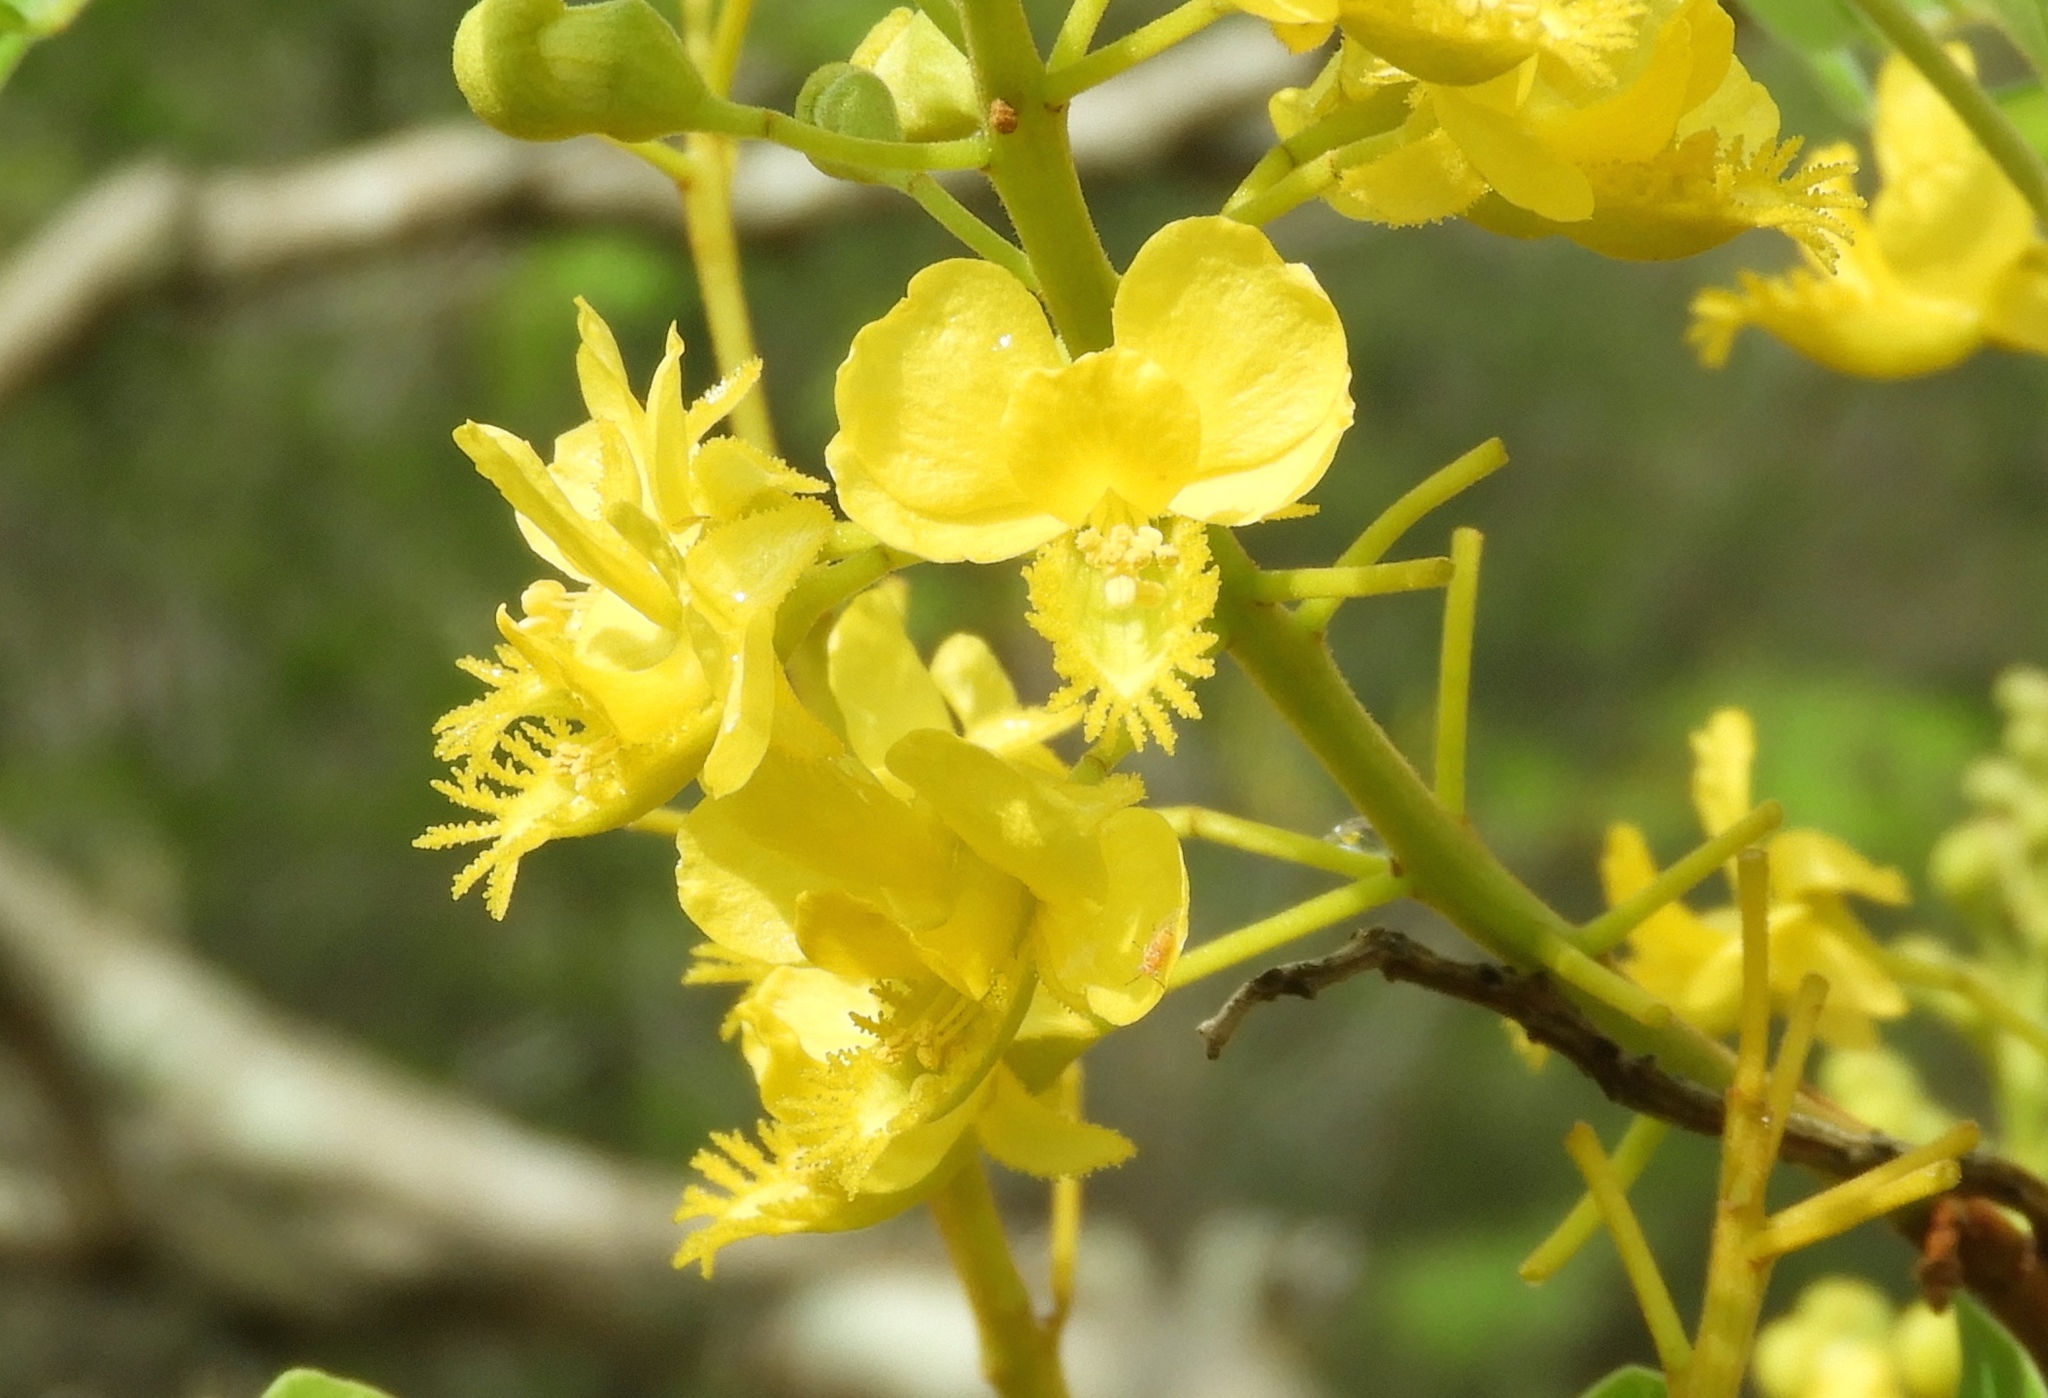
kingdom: Plantae
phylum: Tracheophyta
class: Magnoliopsida
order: Fabales
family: Fabaceae
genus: Coulteria
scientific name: Coulteria platyloba
